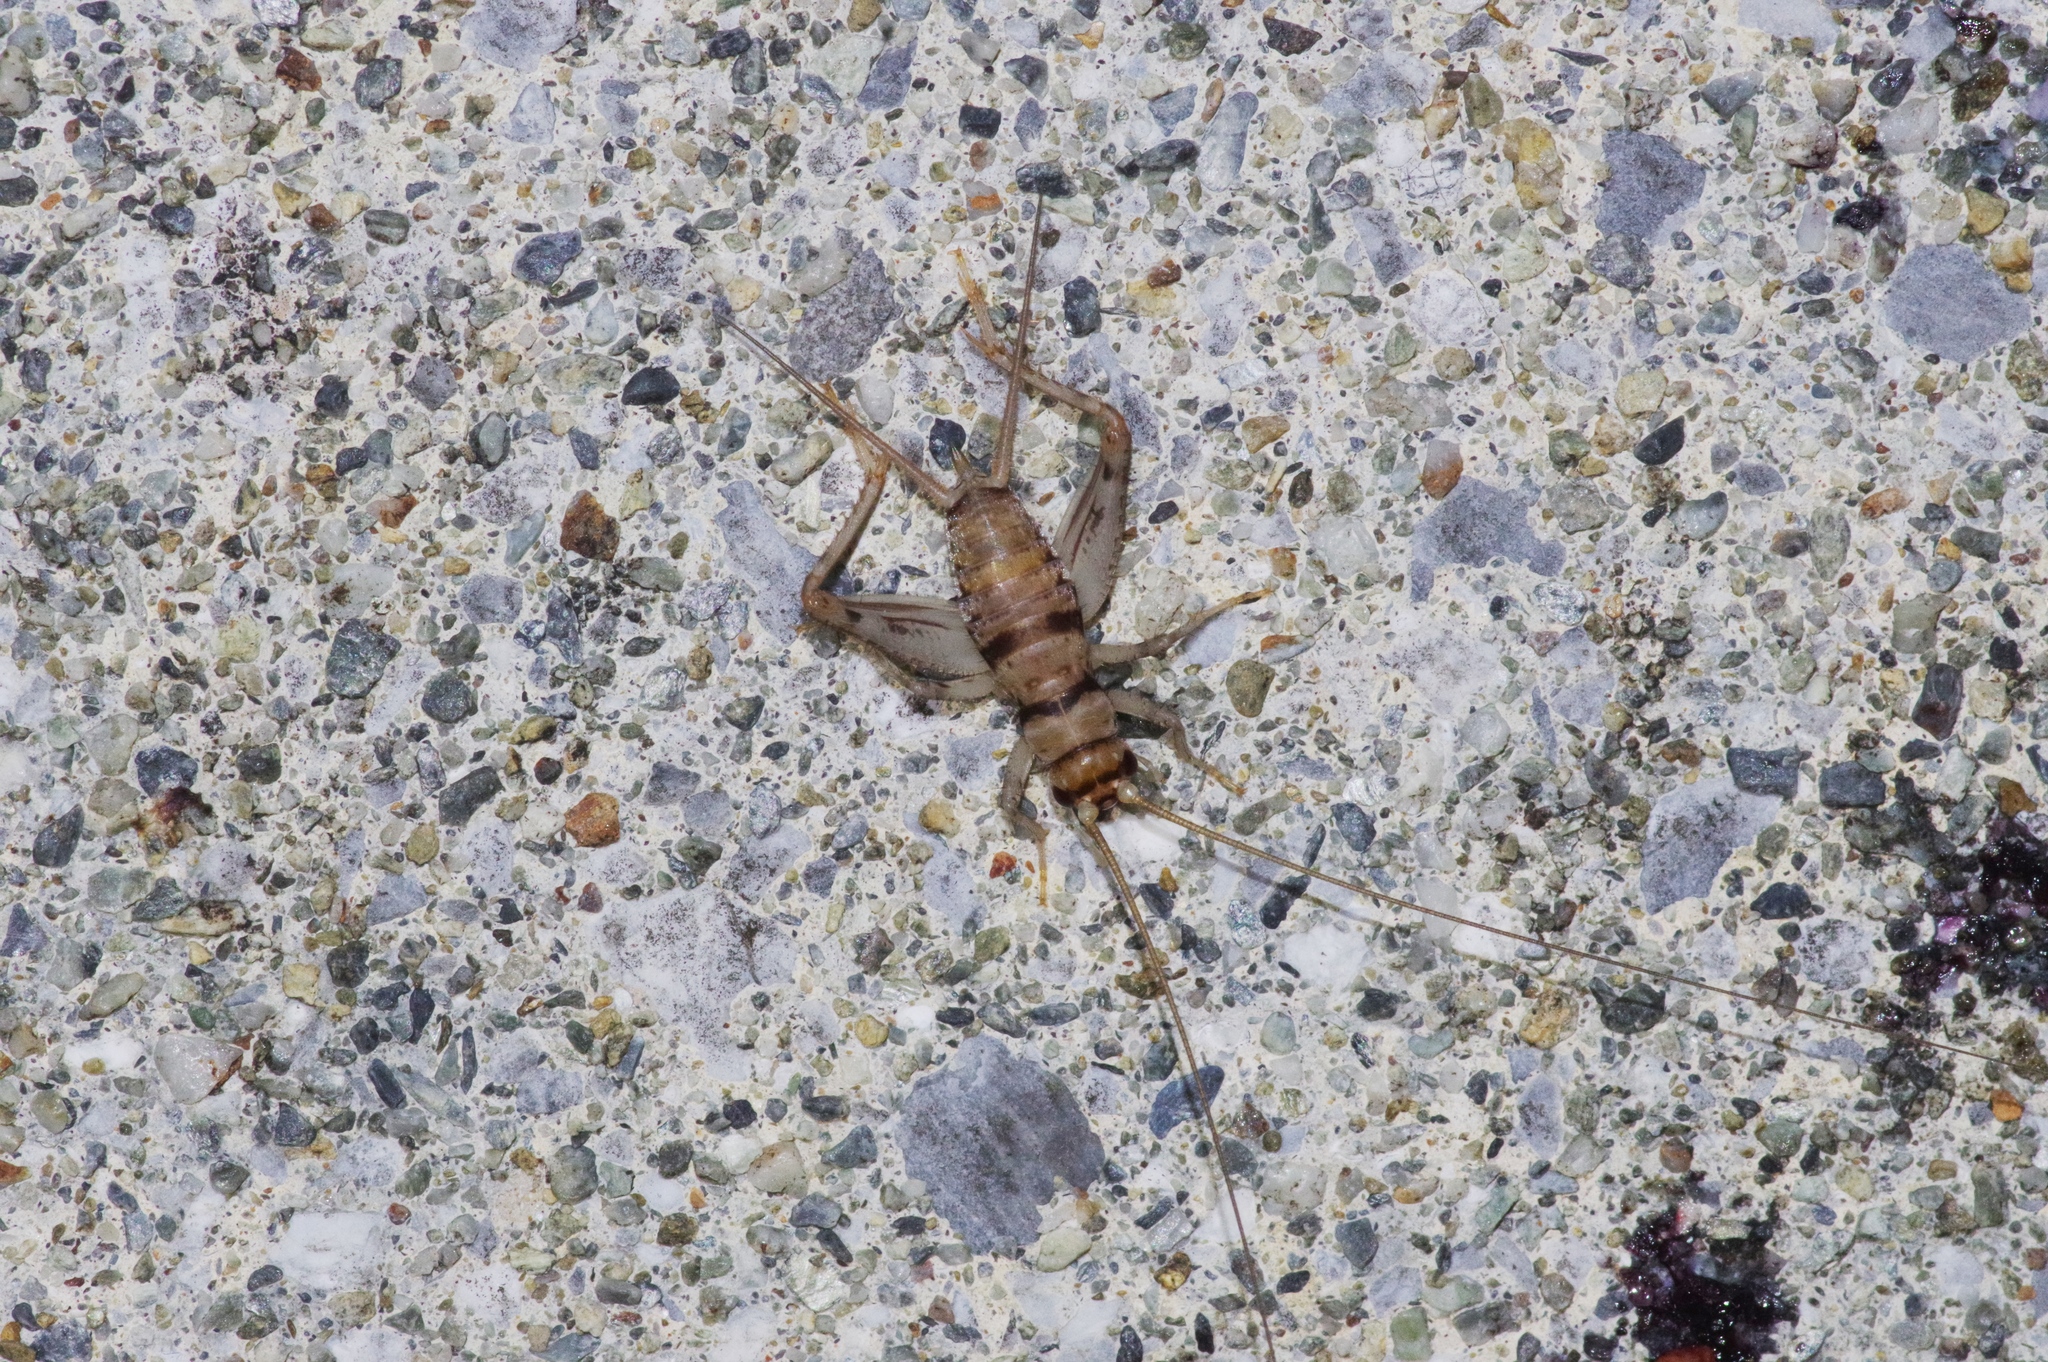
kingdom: Animalia
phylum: Arthropoda
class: Insecta
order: Orthoptera
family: Gryllidae
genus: Gryllodes
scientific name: Gryllodes sigillatus
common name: Tropical house cricket
